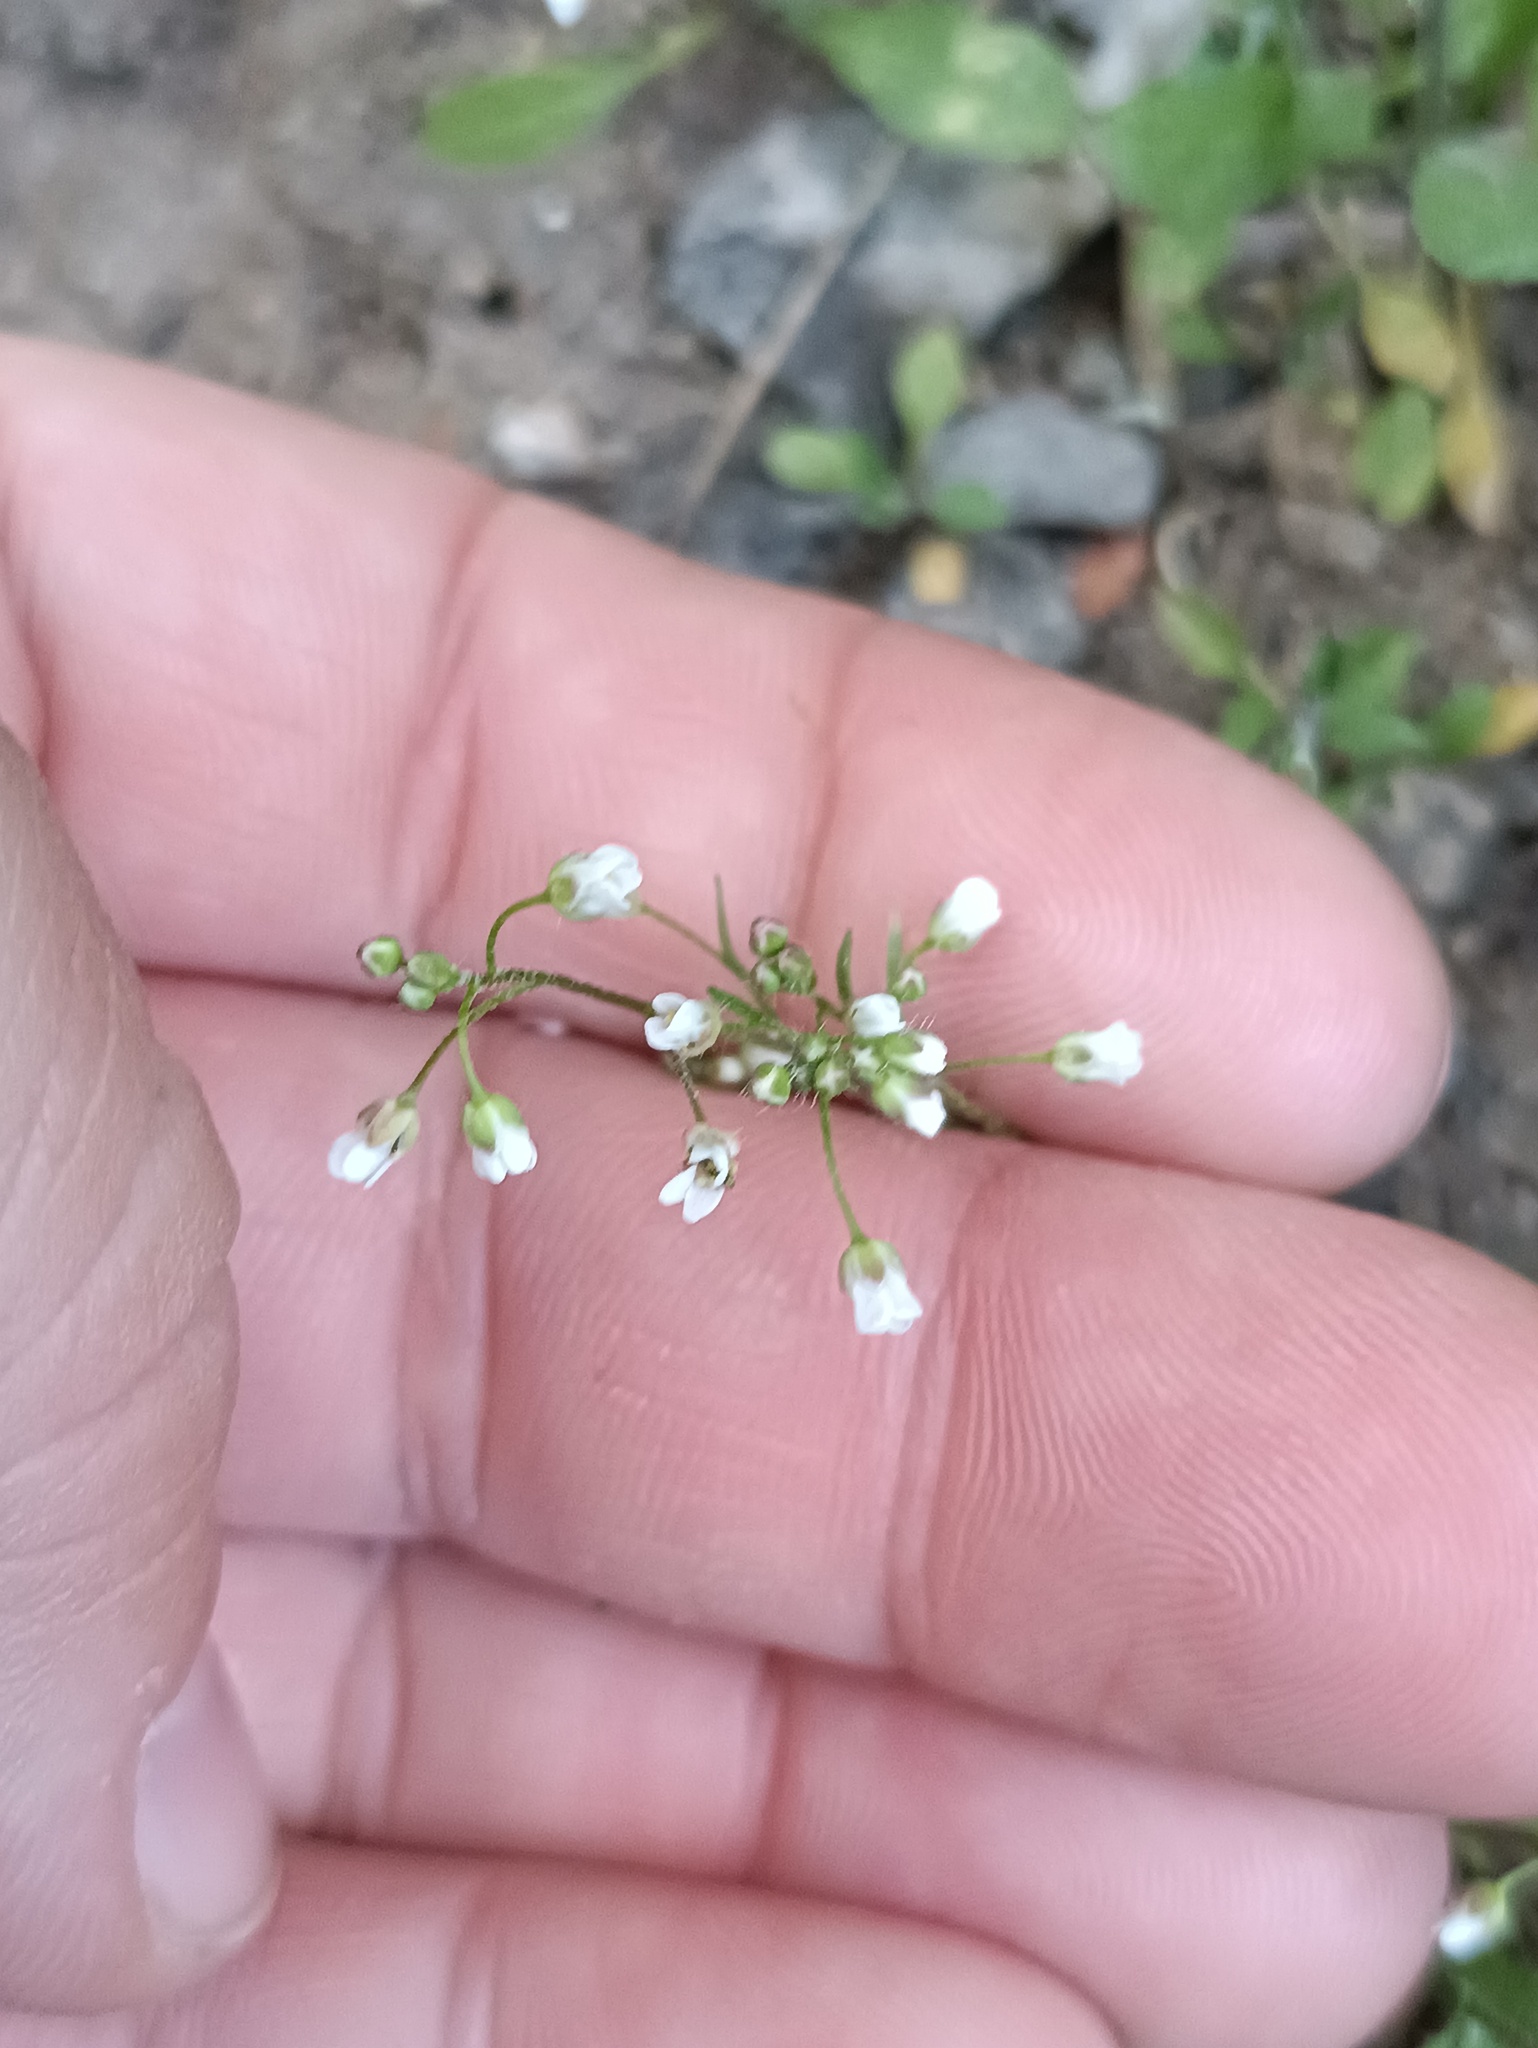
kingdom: Plantae
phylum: Tracheophyta
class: Magnoliopsida
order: Brassicales
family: Brassicaceae
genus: Capsella
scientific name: Capsella bursa-pastoris
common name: Shepherd's purse
